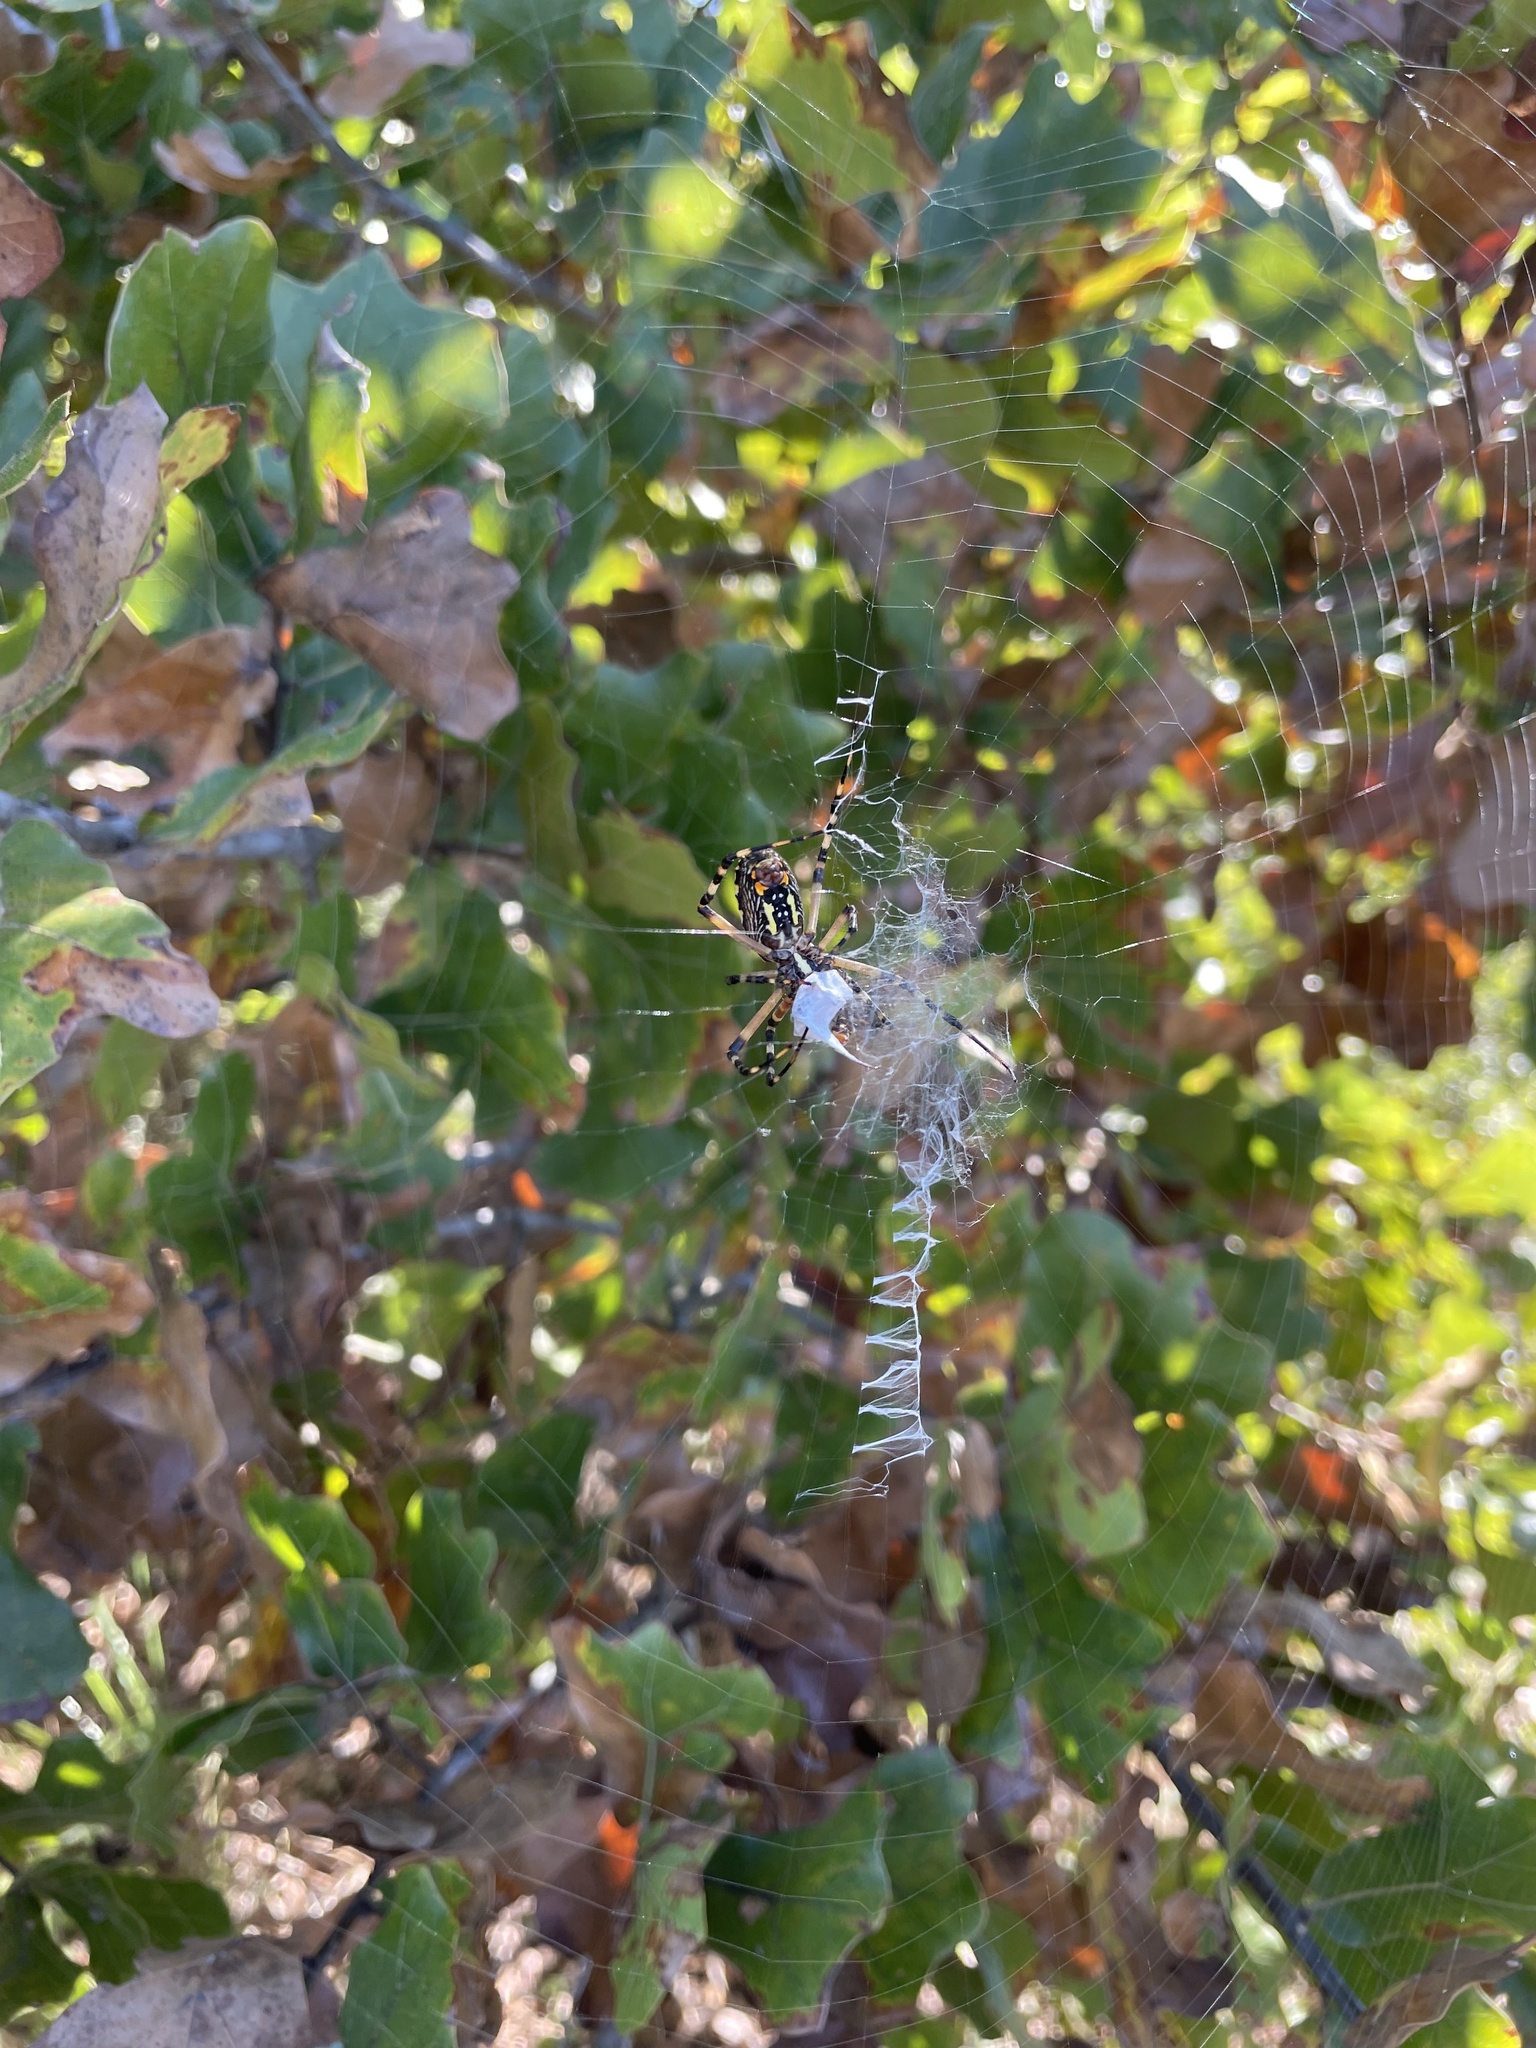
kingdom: Animalia
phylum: Arthropoda
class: Arachnida
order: Araneae
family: Araneidae
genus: Argiope
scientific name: Argiope aurantia
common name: Orb weavers
